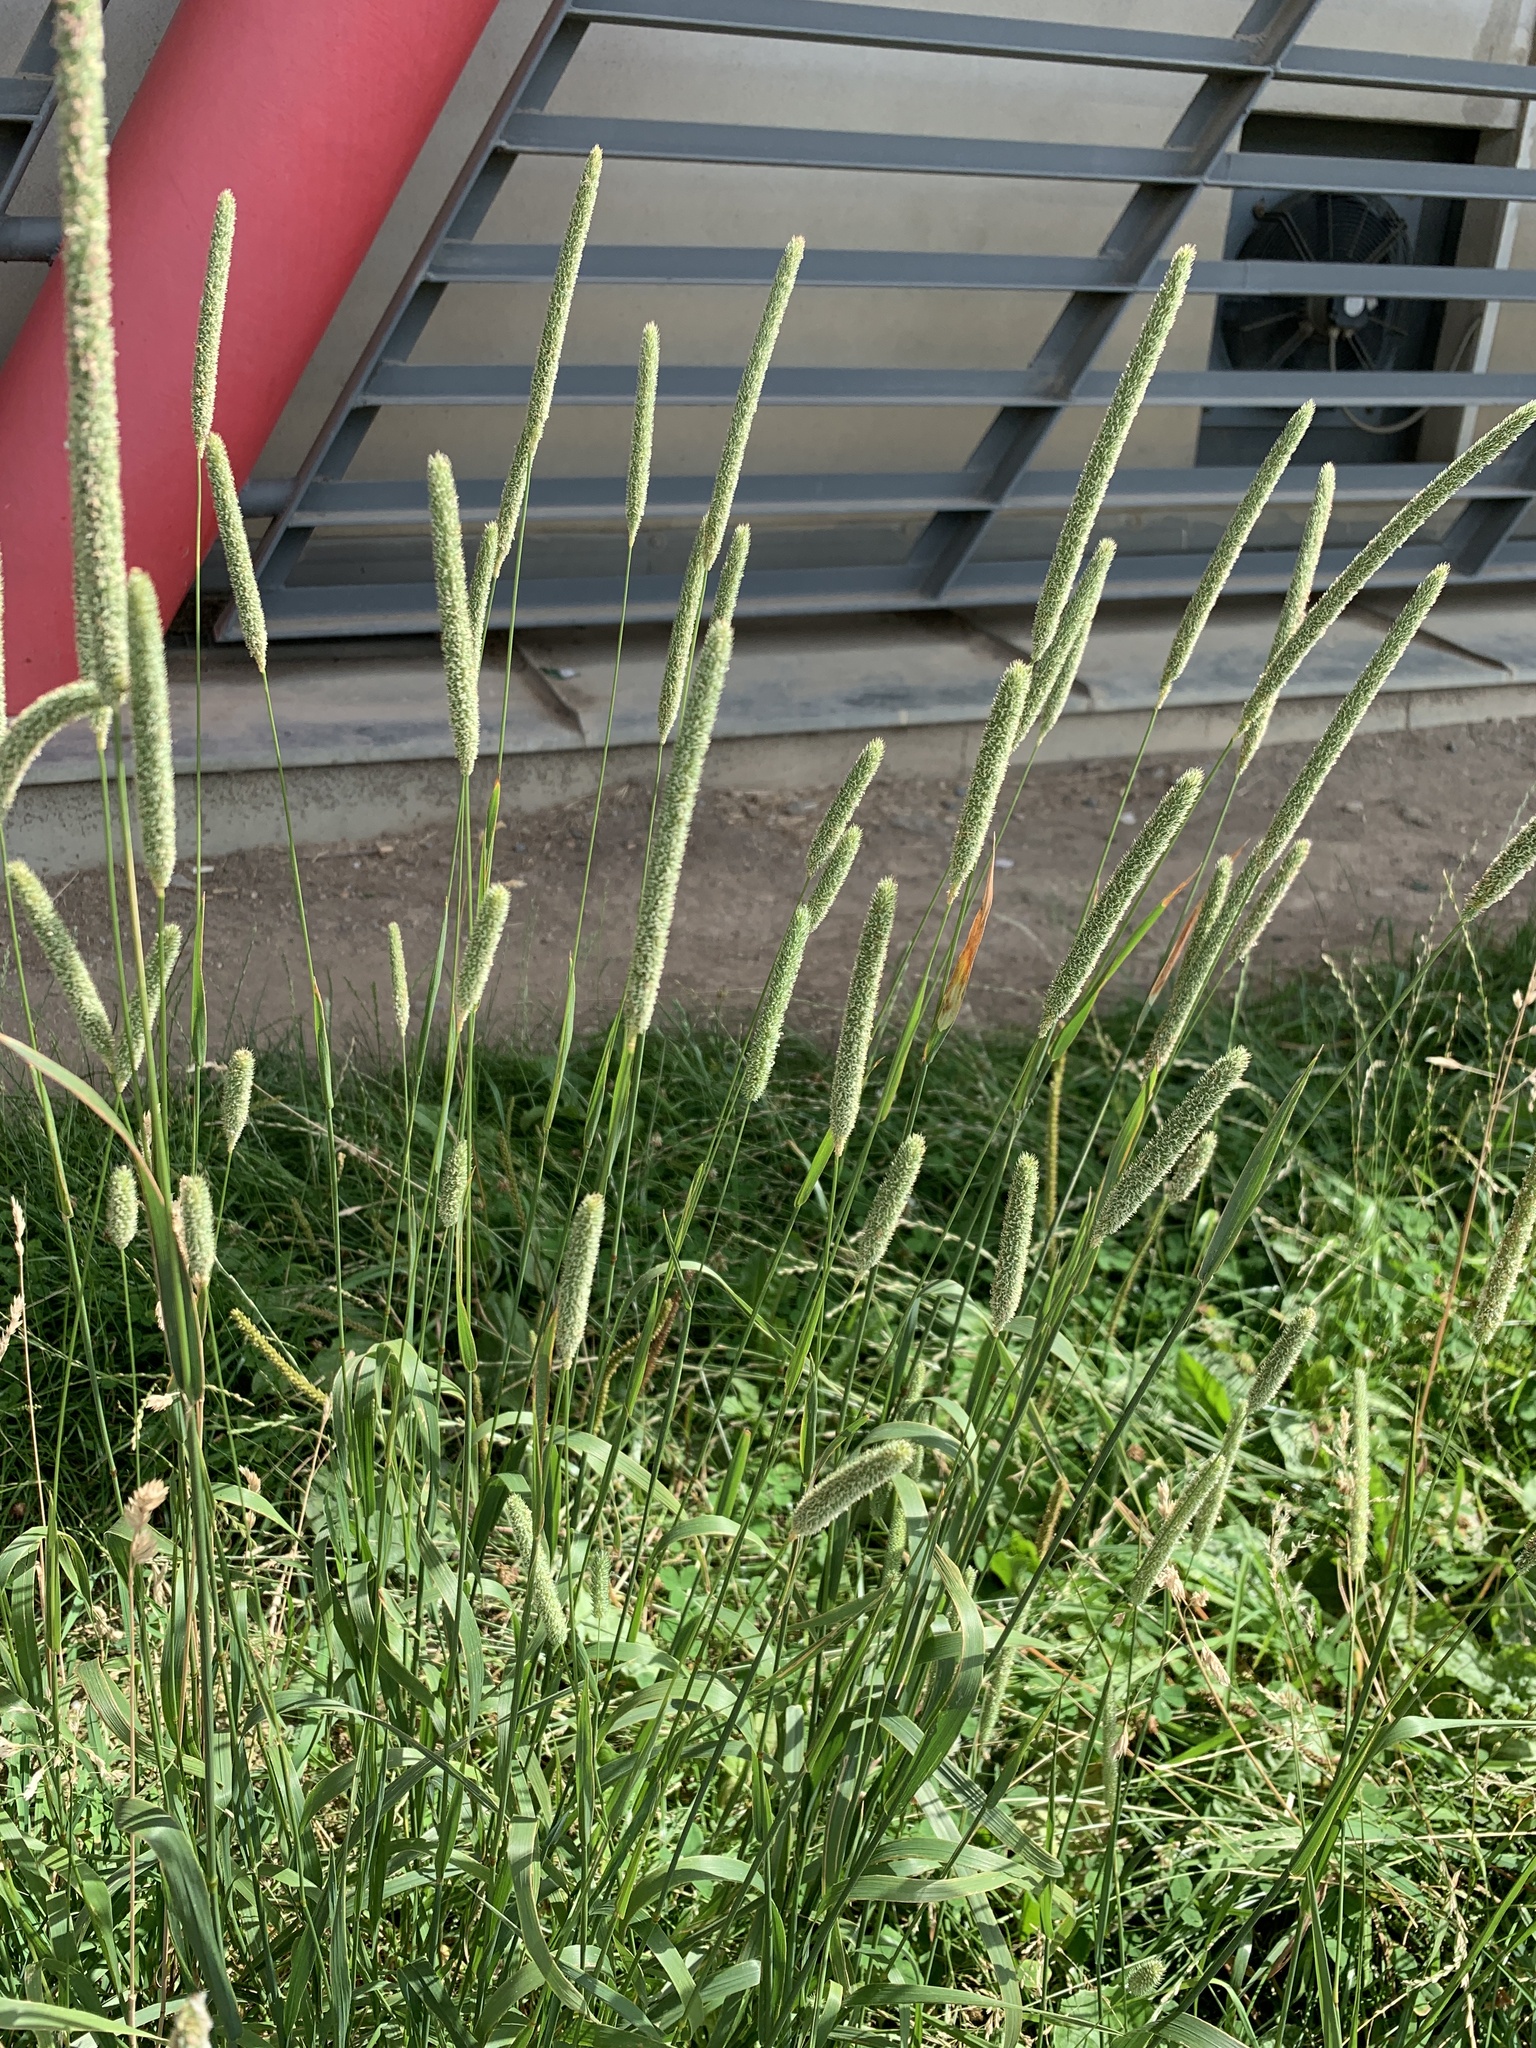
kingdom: Plantae
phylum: Tracheophyta
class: Liliopsida
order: Poales
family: Poaceae
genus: Phleum
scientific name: Phleum pratense
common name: Timothy grass
